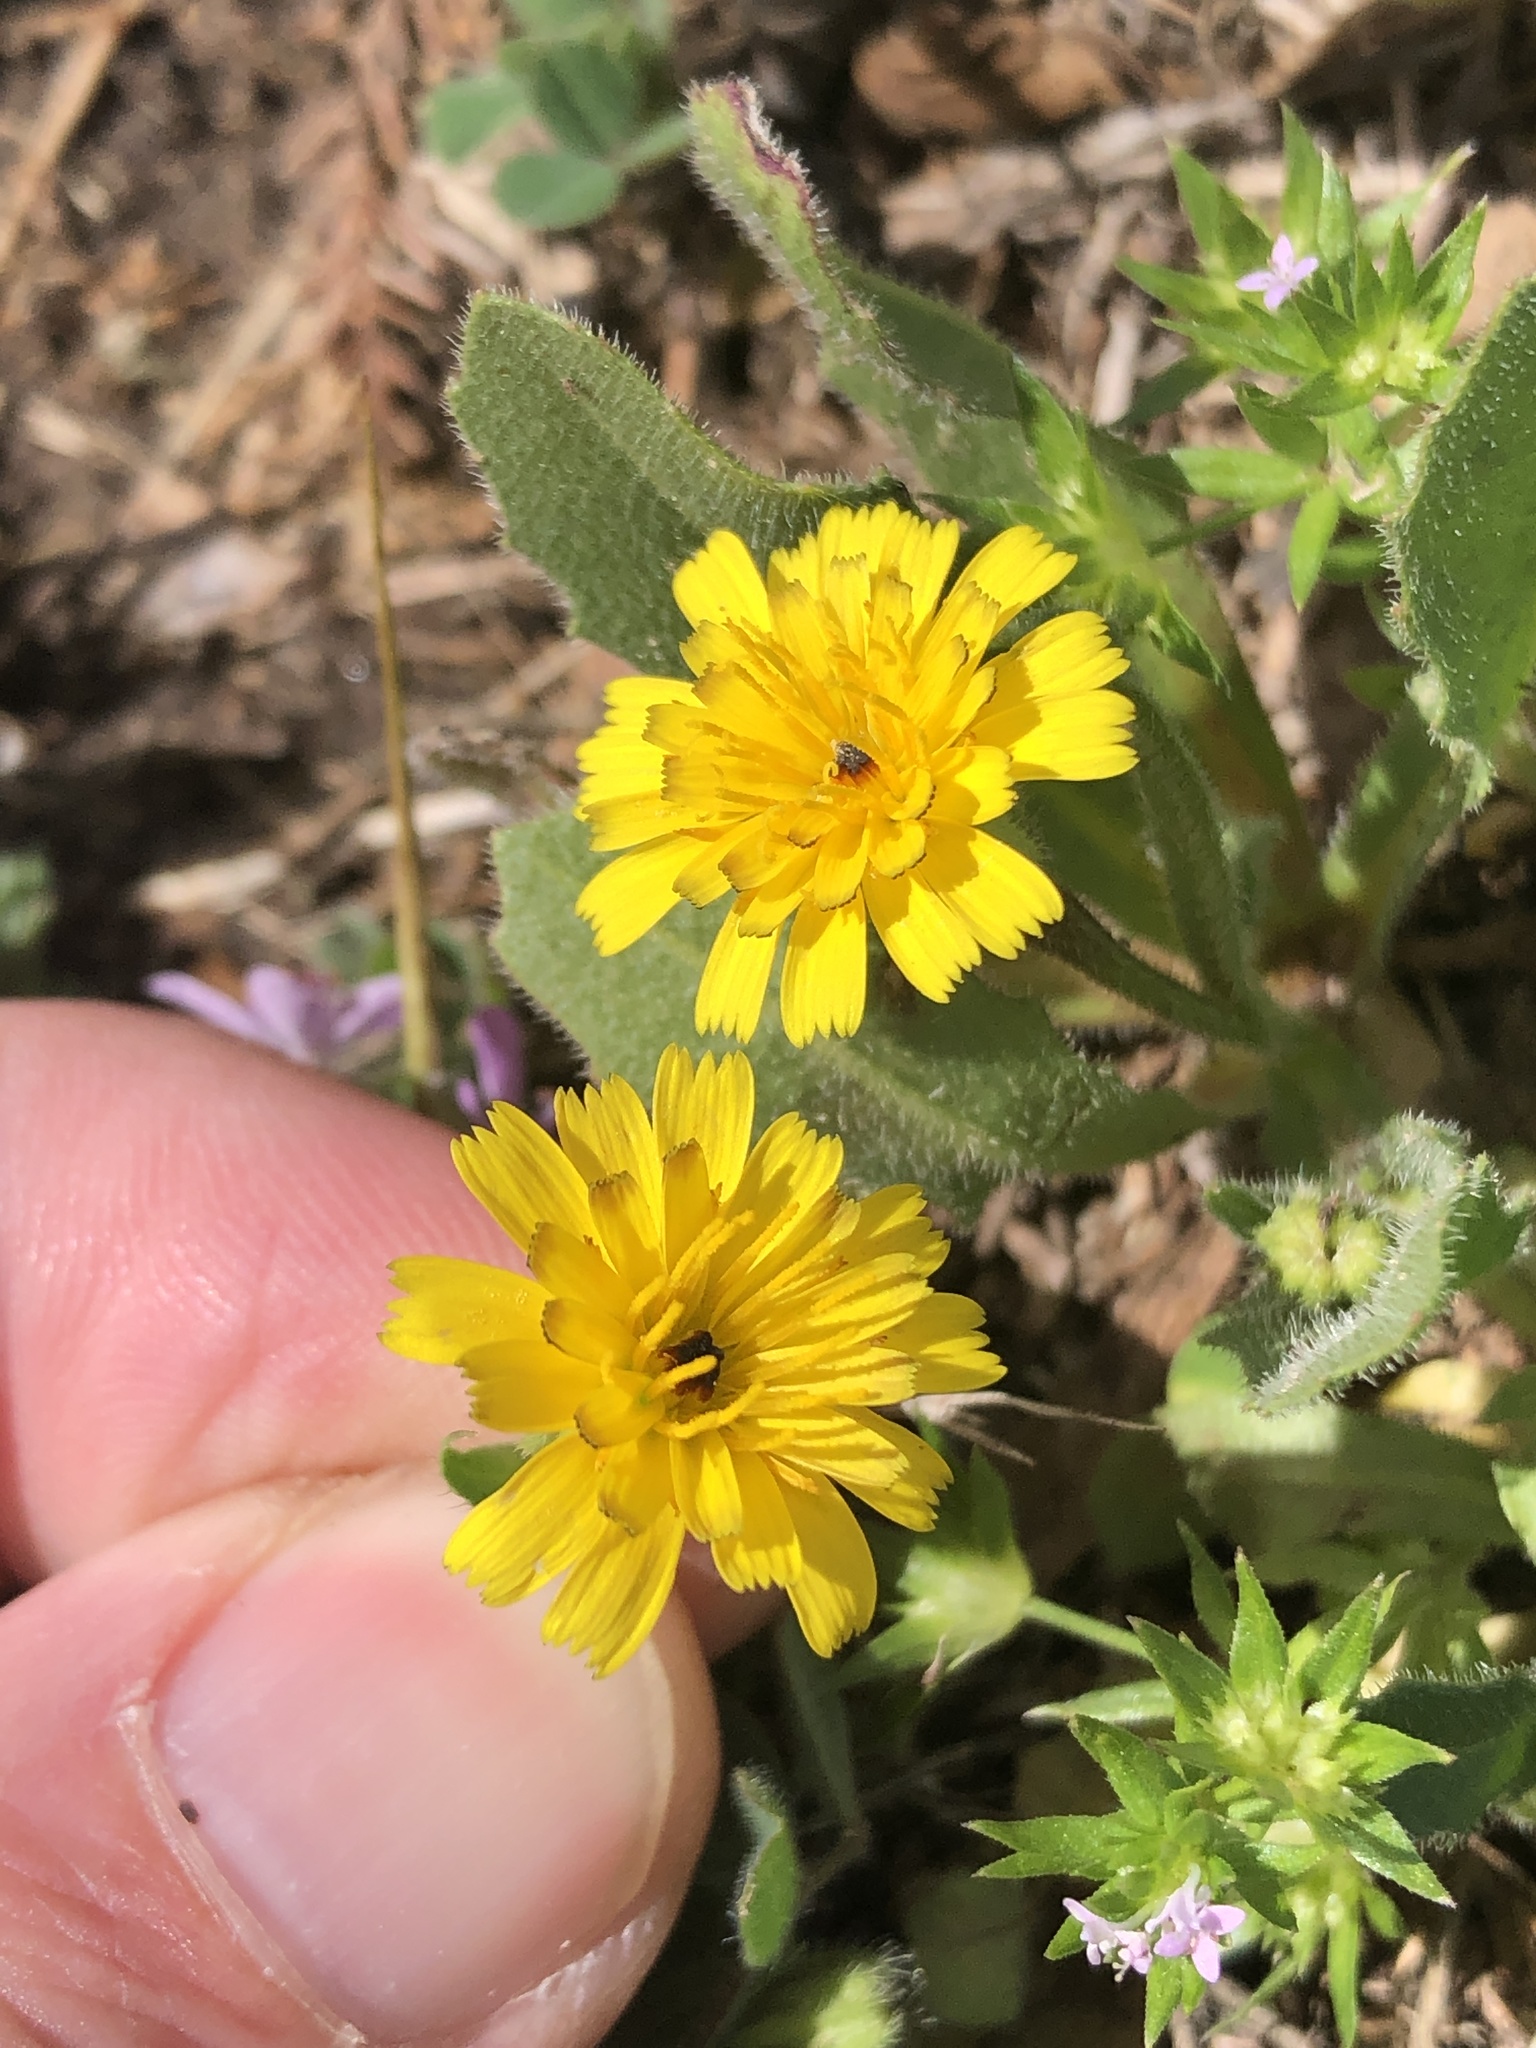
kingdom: Plantae
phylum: Tracheophyta
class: Magnoliopsida
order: Asterales
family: Asteraceae
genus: Hedypnois
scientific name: Hedypnois rhagadioloides
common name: Cretan weed
